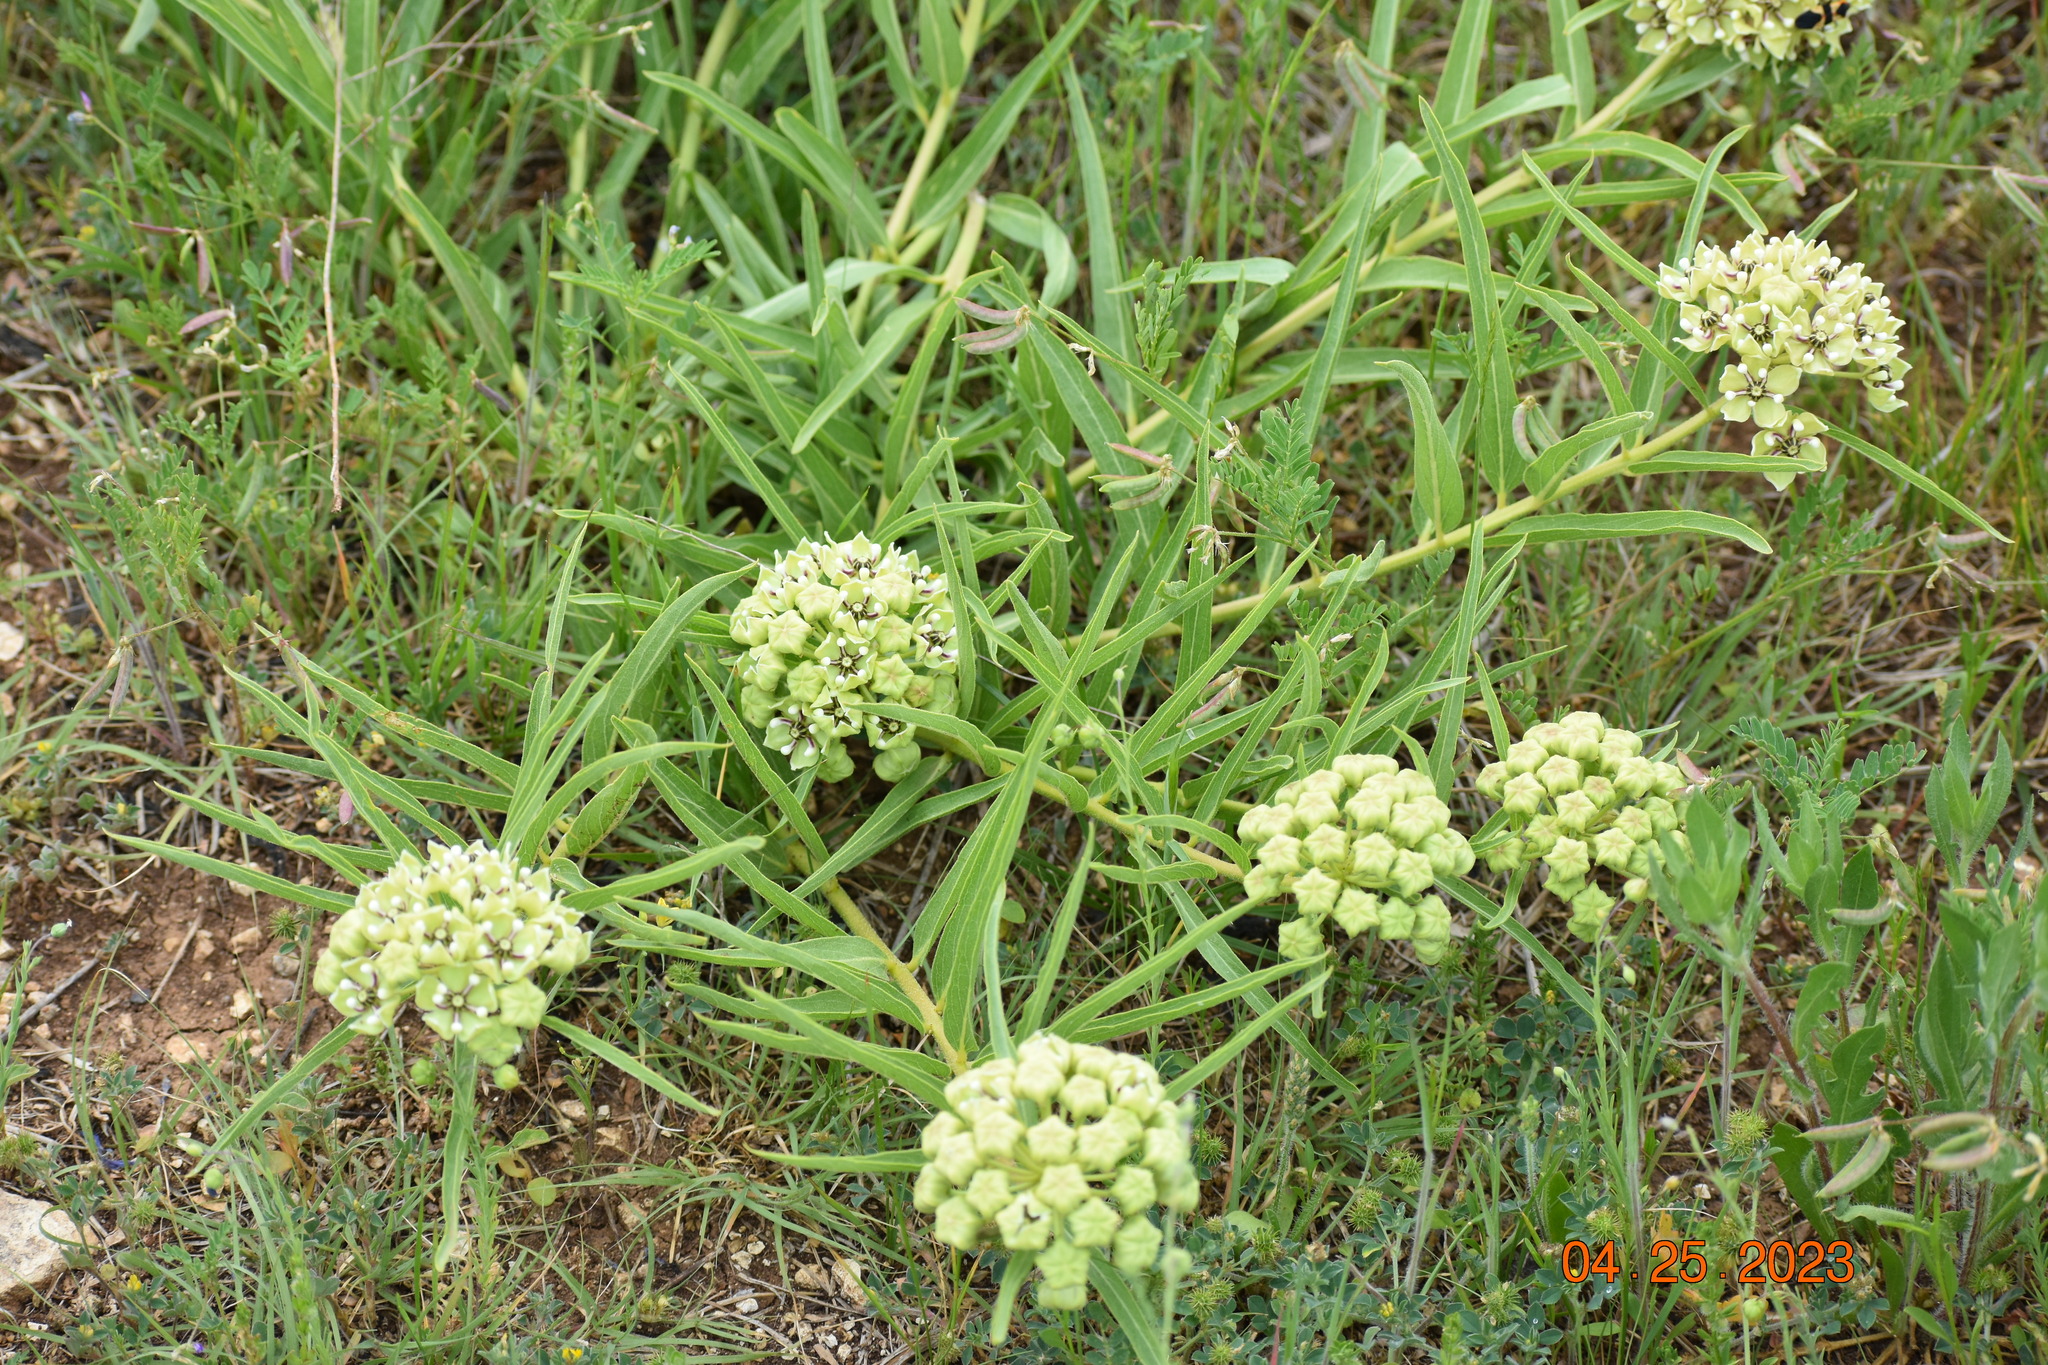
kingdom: Plantae
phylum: Tracheophyta
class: Magnoliopsida
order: Gentianales
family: Apocynaceae
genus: Asclepias
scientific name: Asclepias asperula
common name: Antelope horns
